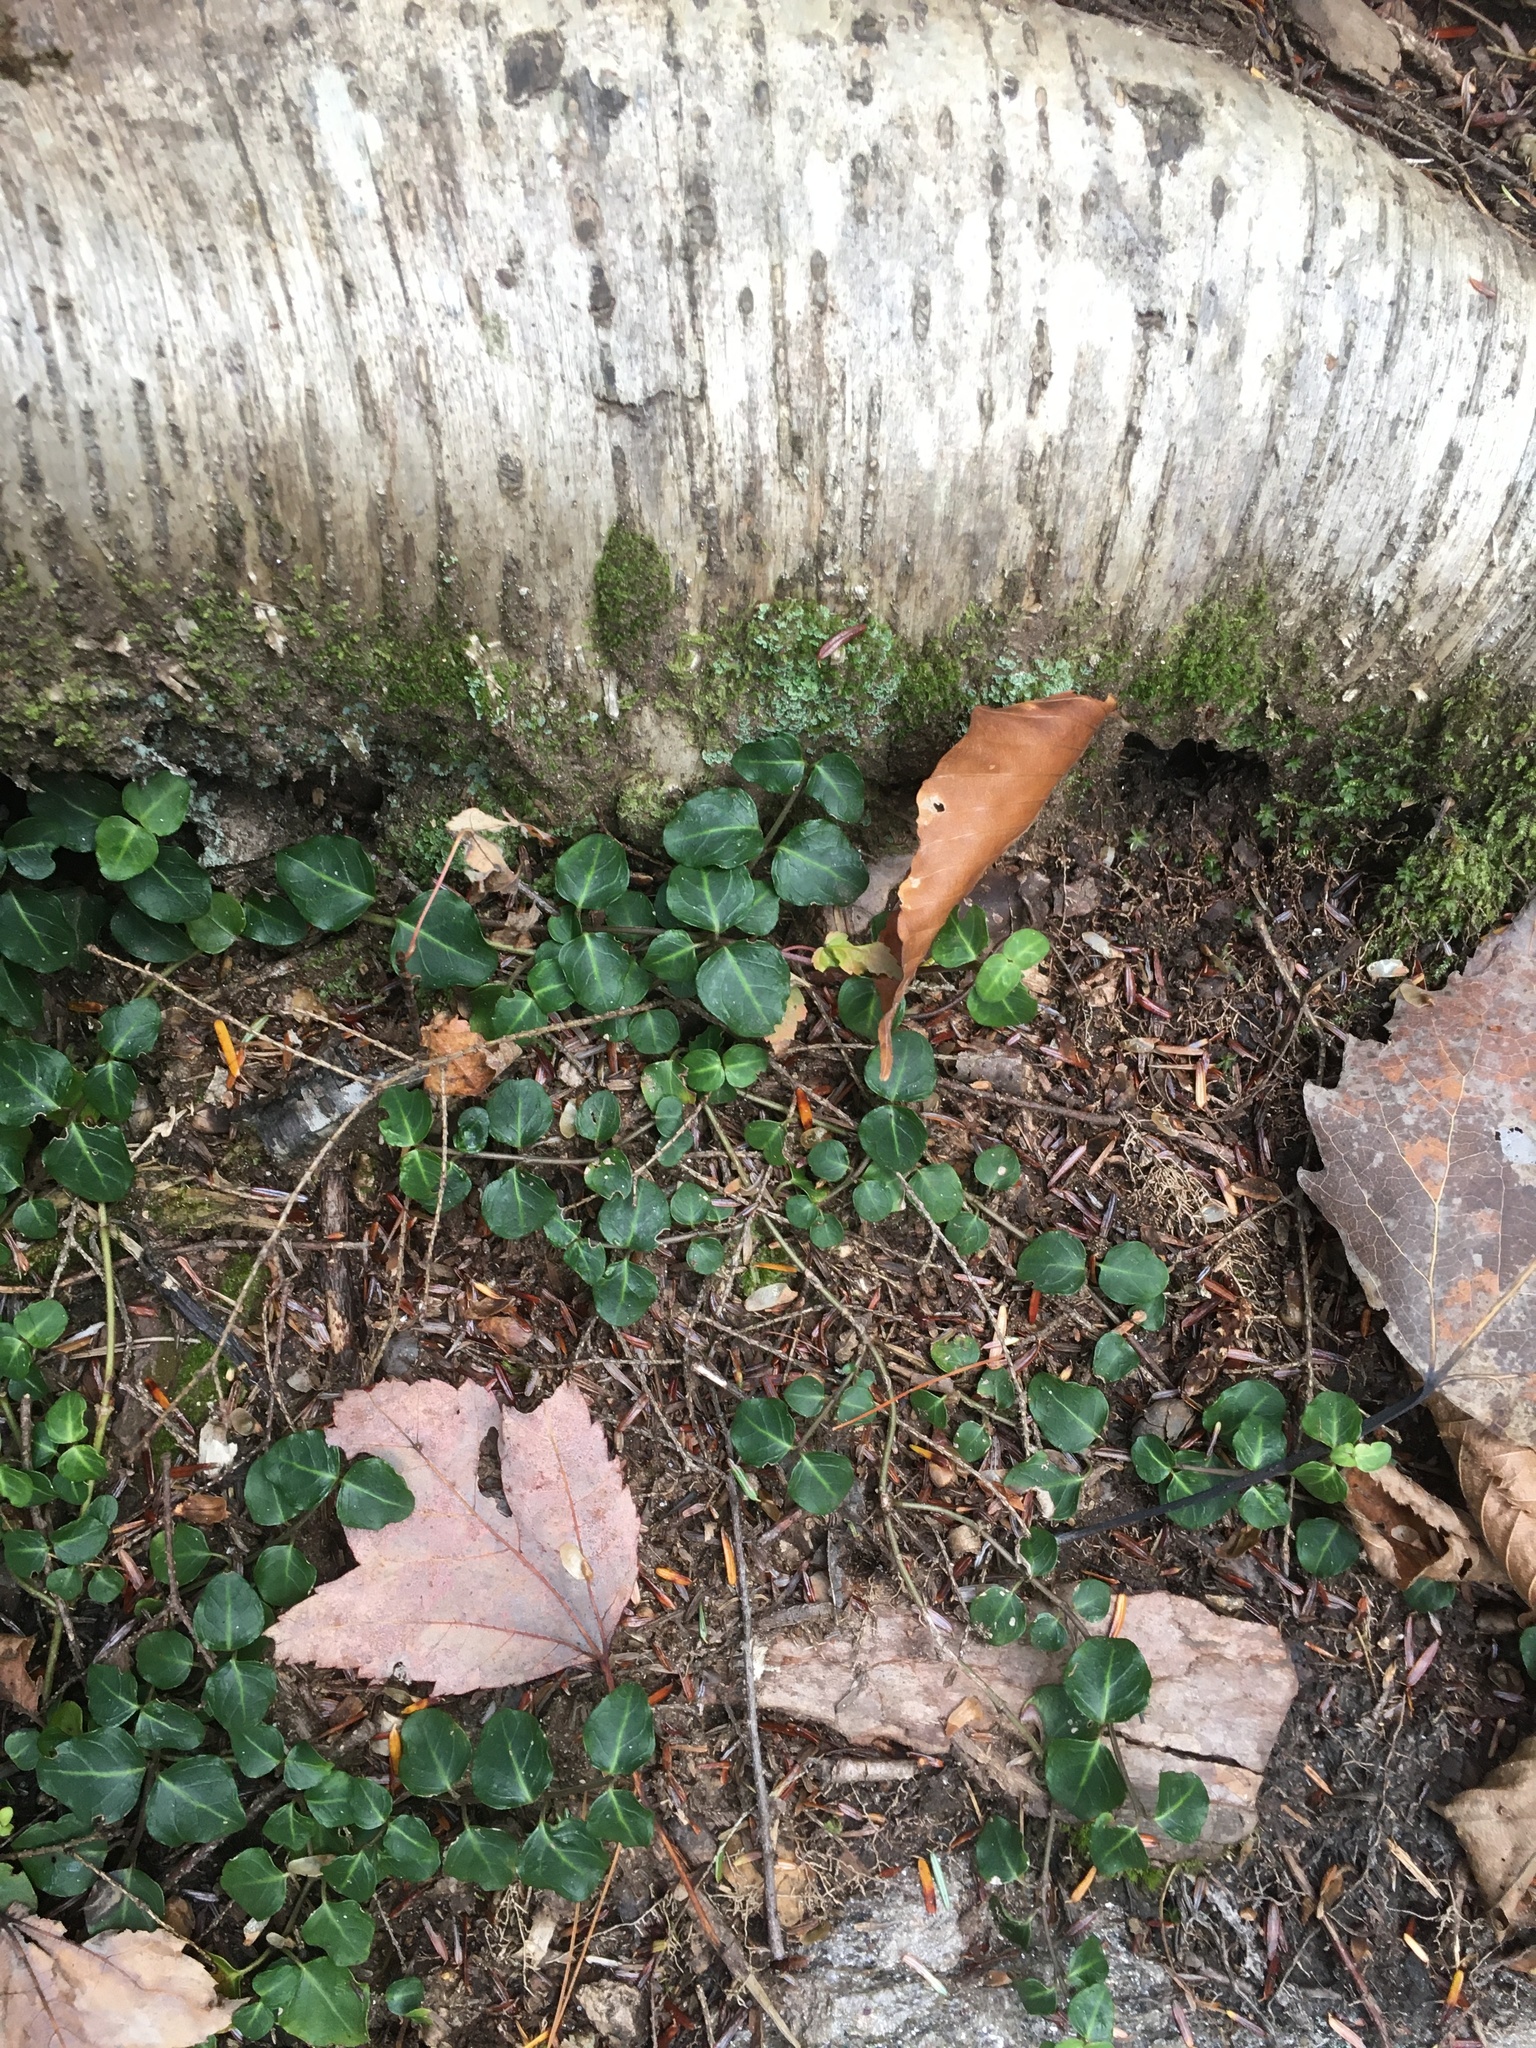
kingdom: Plantae
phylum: Tracheophyta
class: Magnoliopsida
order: Gentianales
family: Rubiaceae
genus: Mitchella
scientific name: Mitchella repens
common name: Partridge-berry
